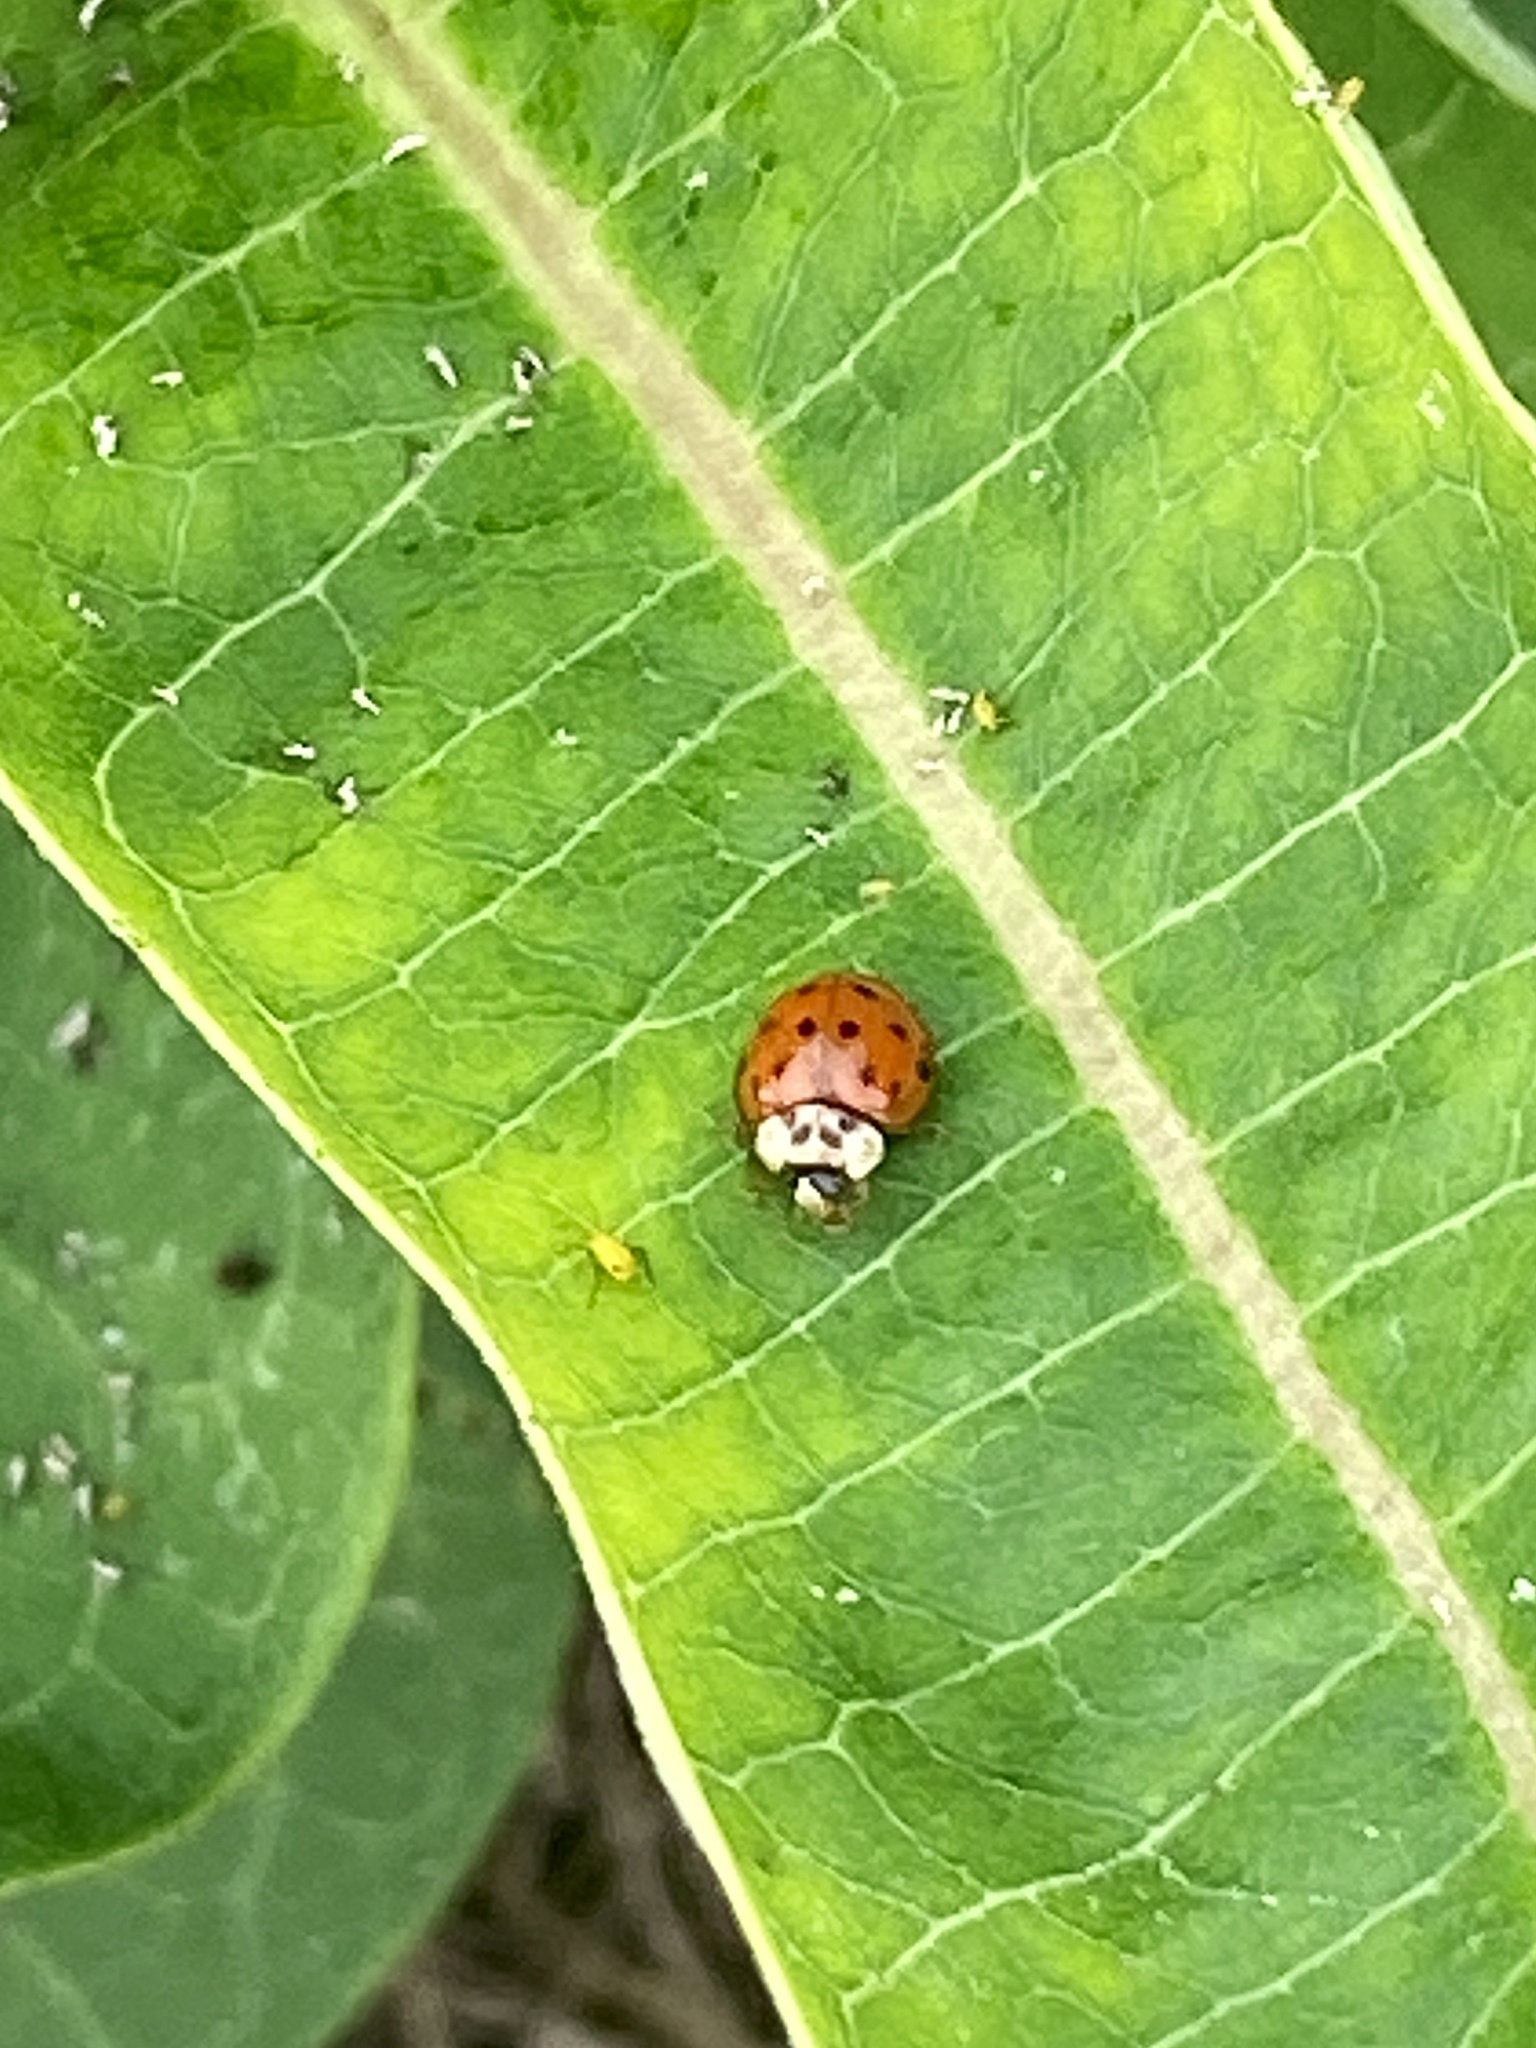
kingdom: Animalia
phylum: Arthropoda
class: Insecta
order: Coleoptera
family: Coccinellidae
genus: Harmonia
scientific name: Harmonia axyridis
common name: Harlequin ladybird
